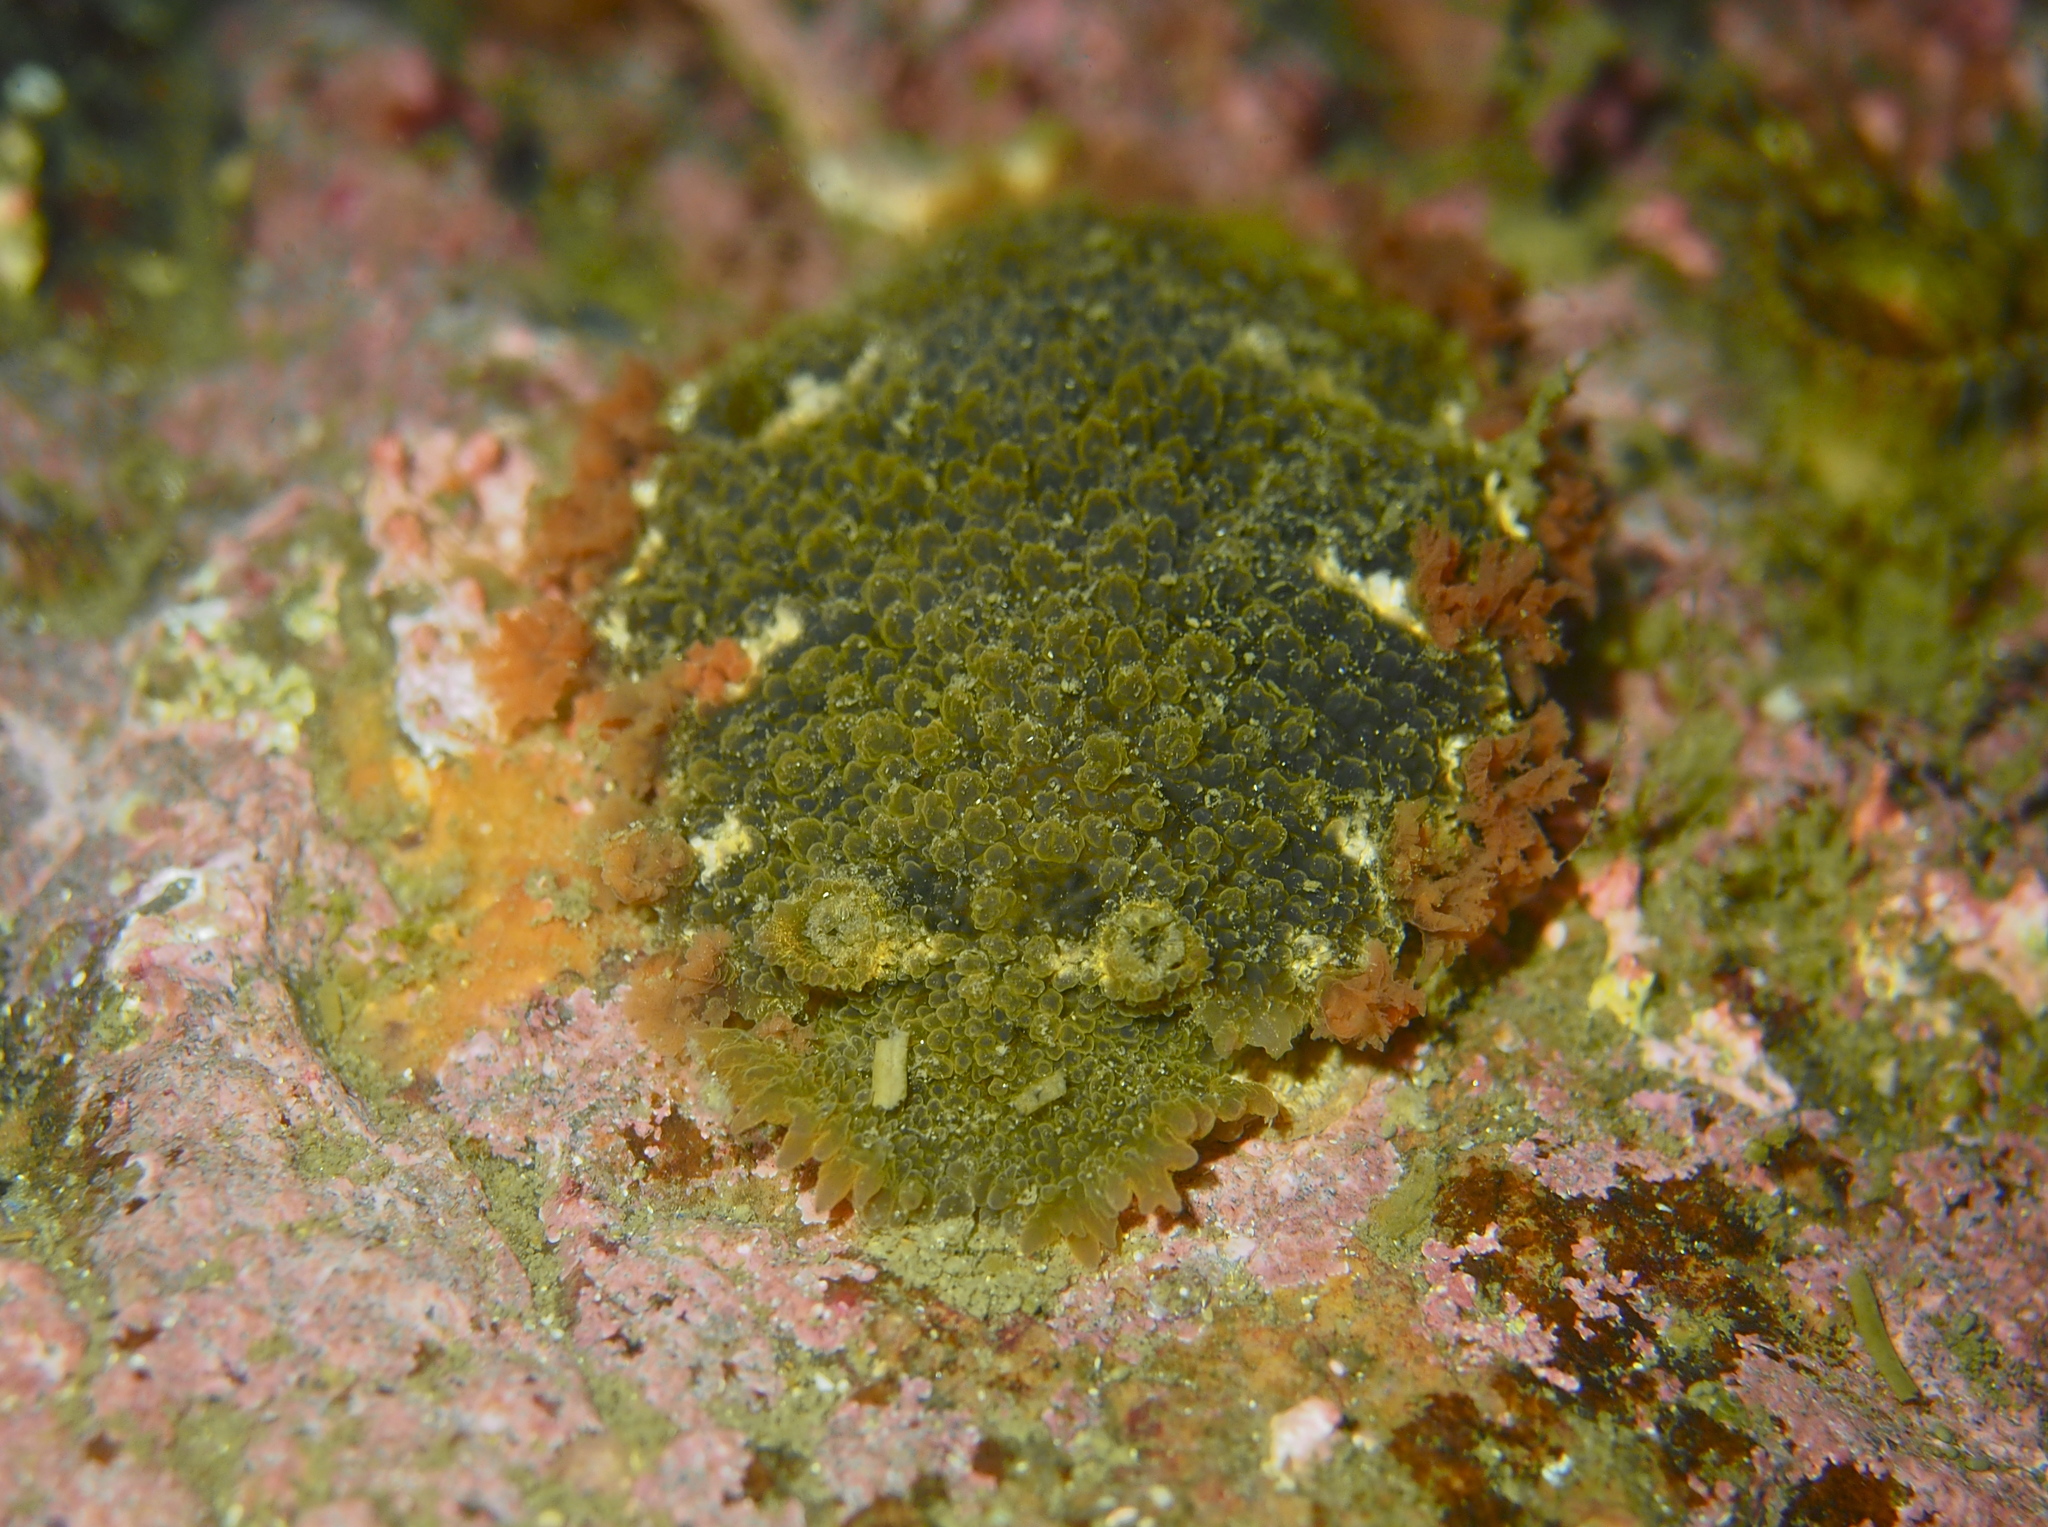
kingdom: Animalia
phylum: Mollusca
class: Gastropoda
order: Nudibranchia
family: Tritoniidae
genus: Tritonia
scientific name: Tritonia hombergii
